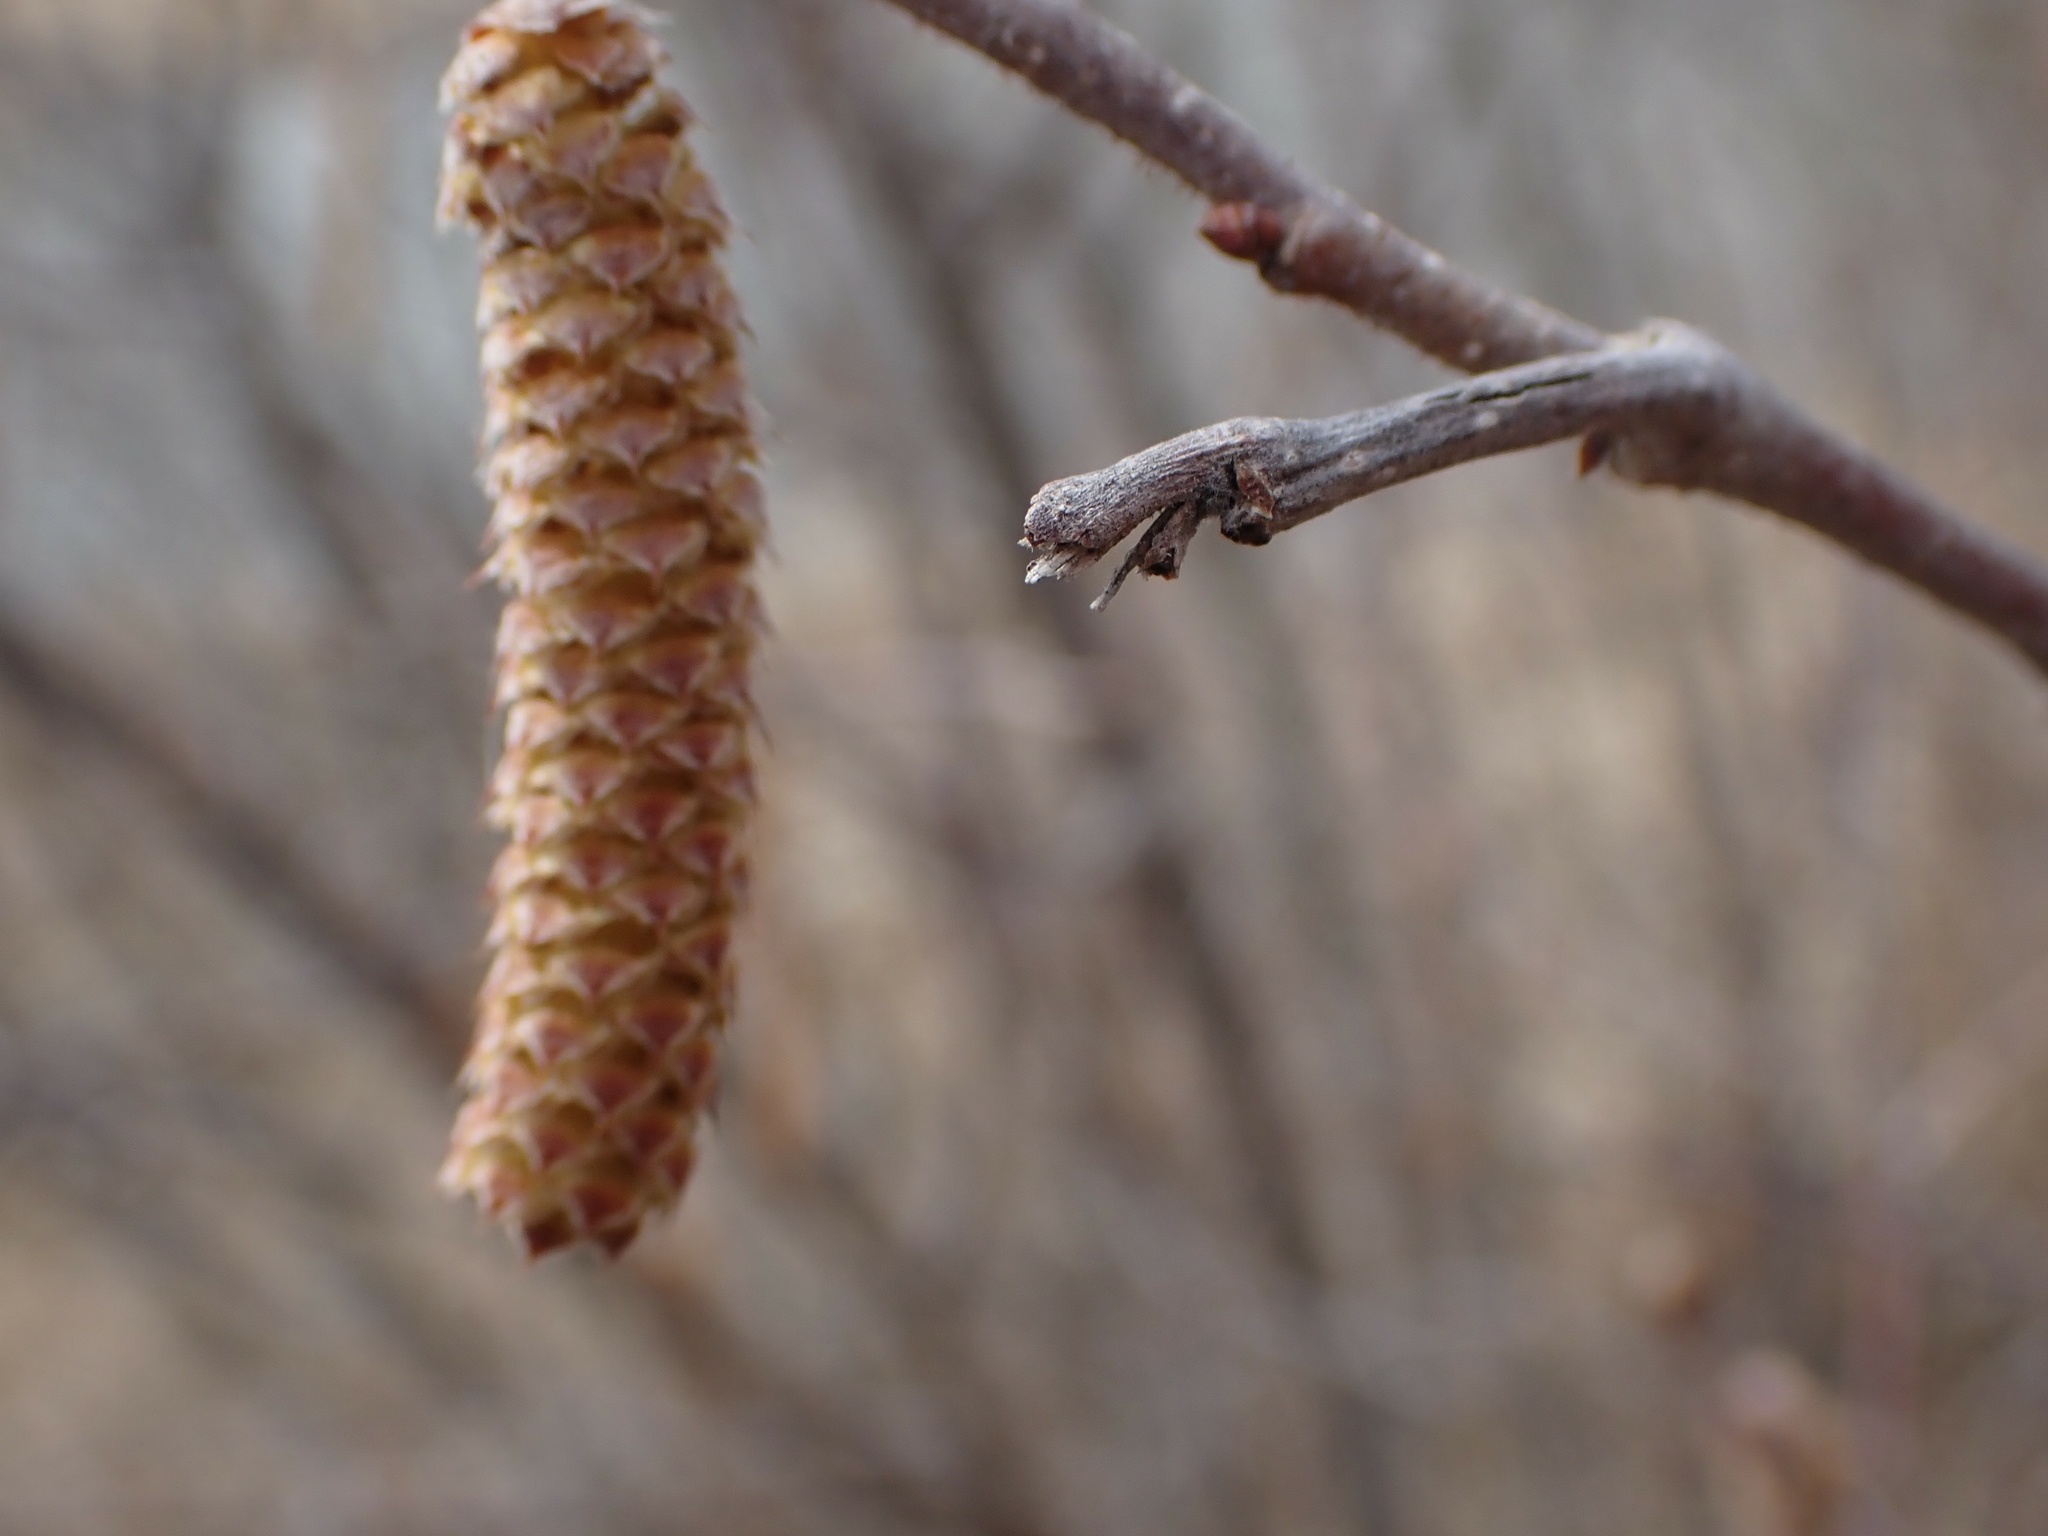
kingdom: Plantae
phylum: Tracheophyta
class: Magnoliopsida
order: Fagales
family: Betulaceae
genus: Corylus
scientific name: Corylus americana
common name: American hazel
